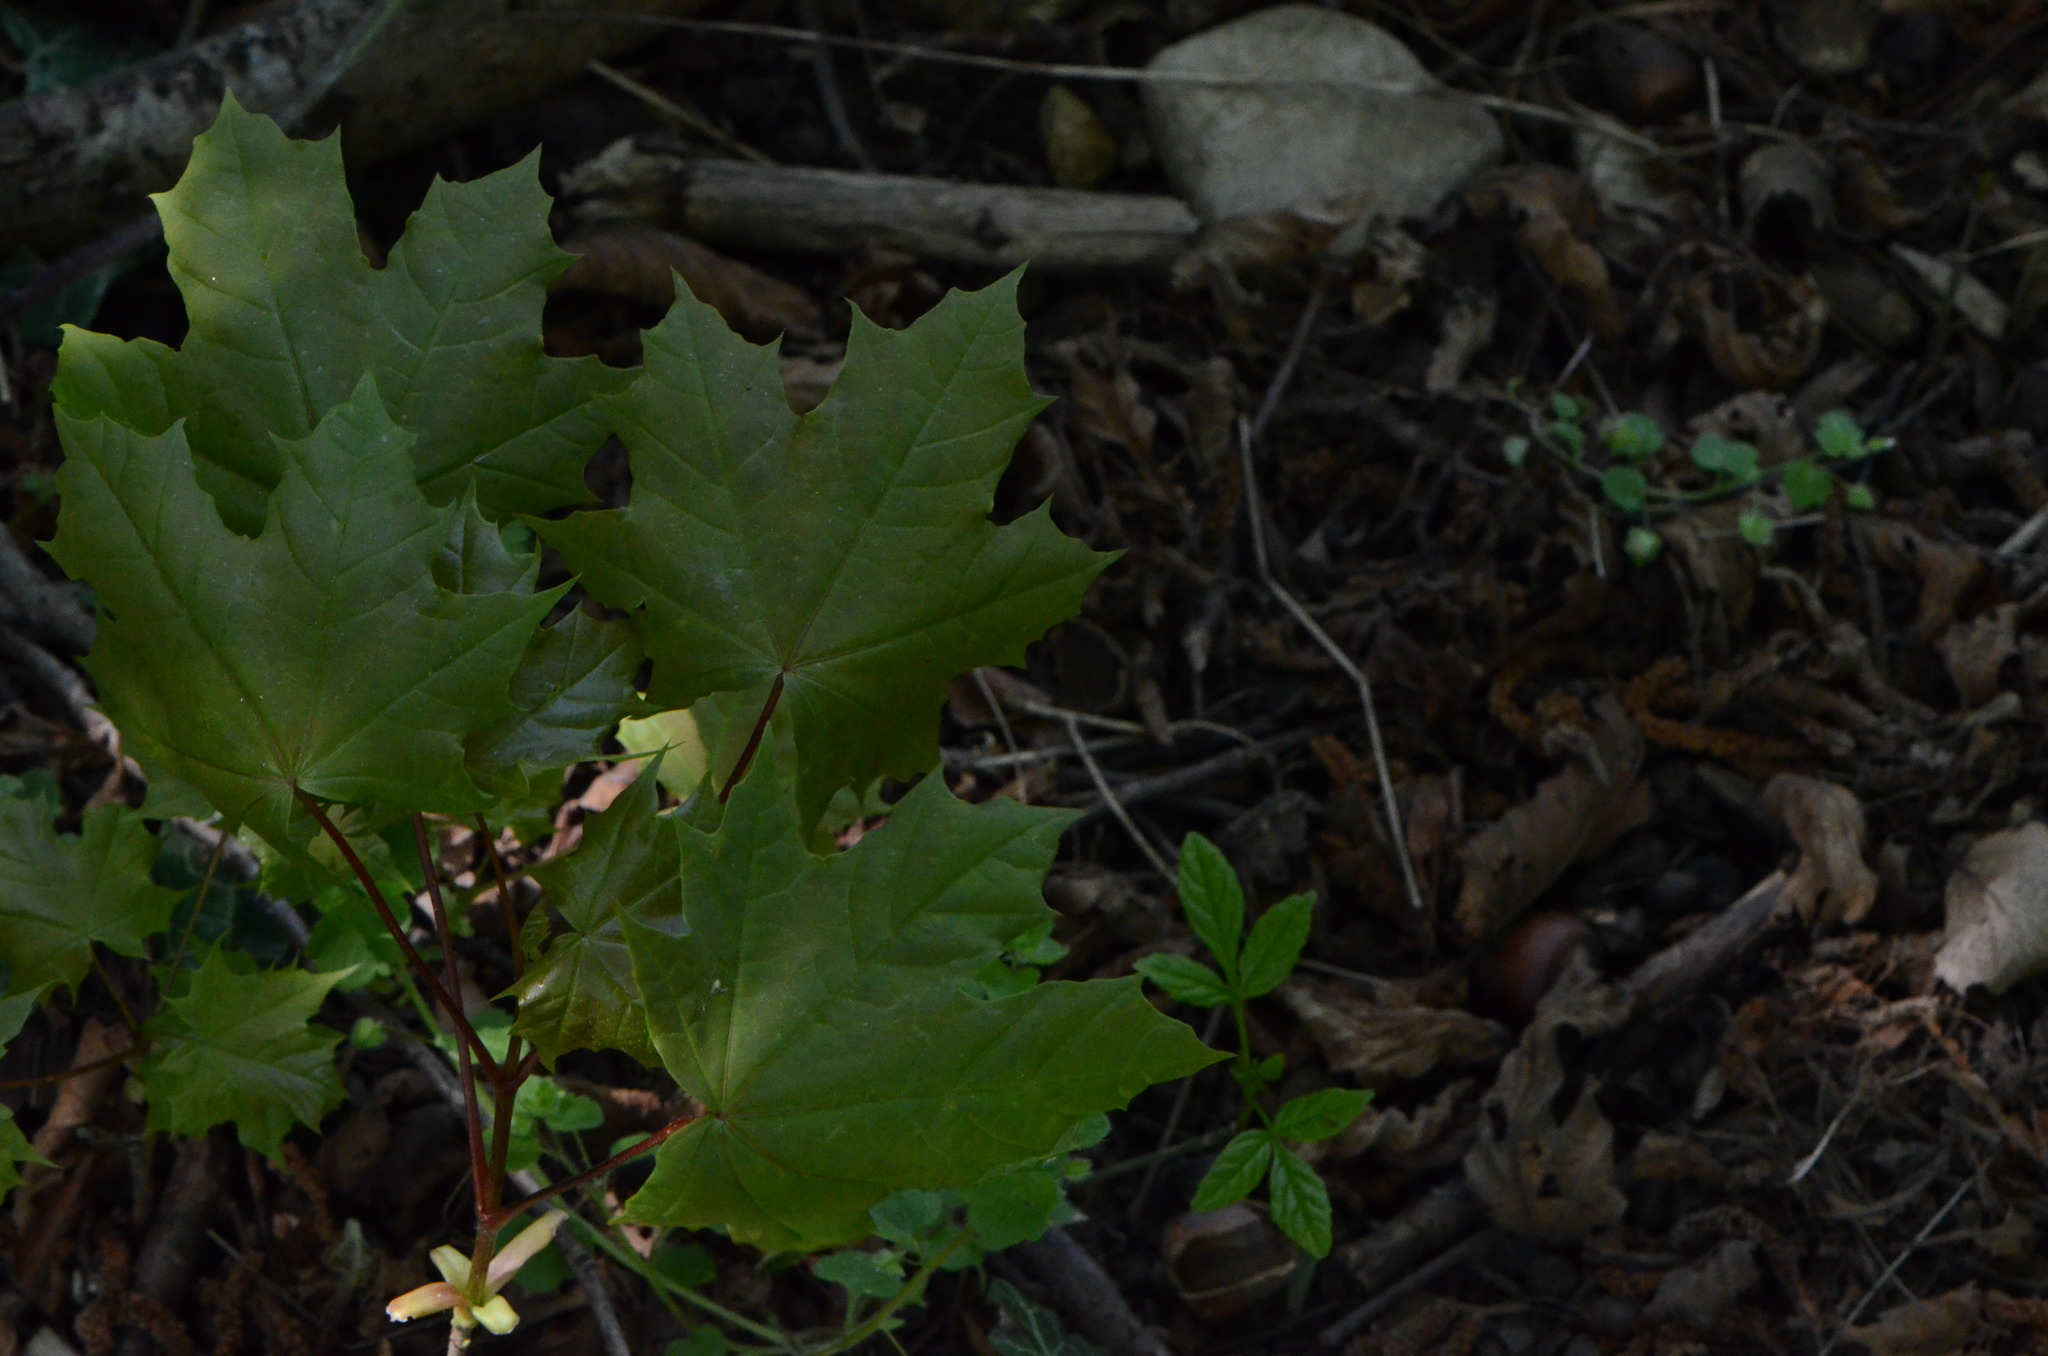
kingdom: Plantae
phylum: Tracheophyta
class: Magnoliopsida
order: Sapindales
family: Sapindaceae
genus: Acer
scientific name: Acer platanoides
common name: Norway maple
